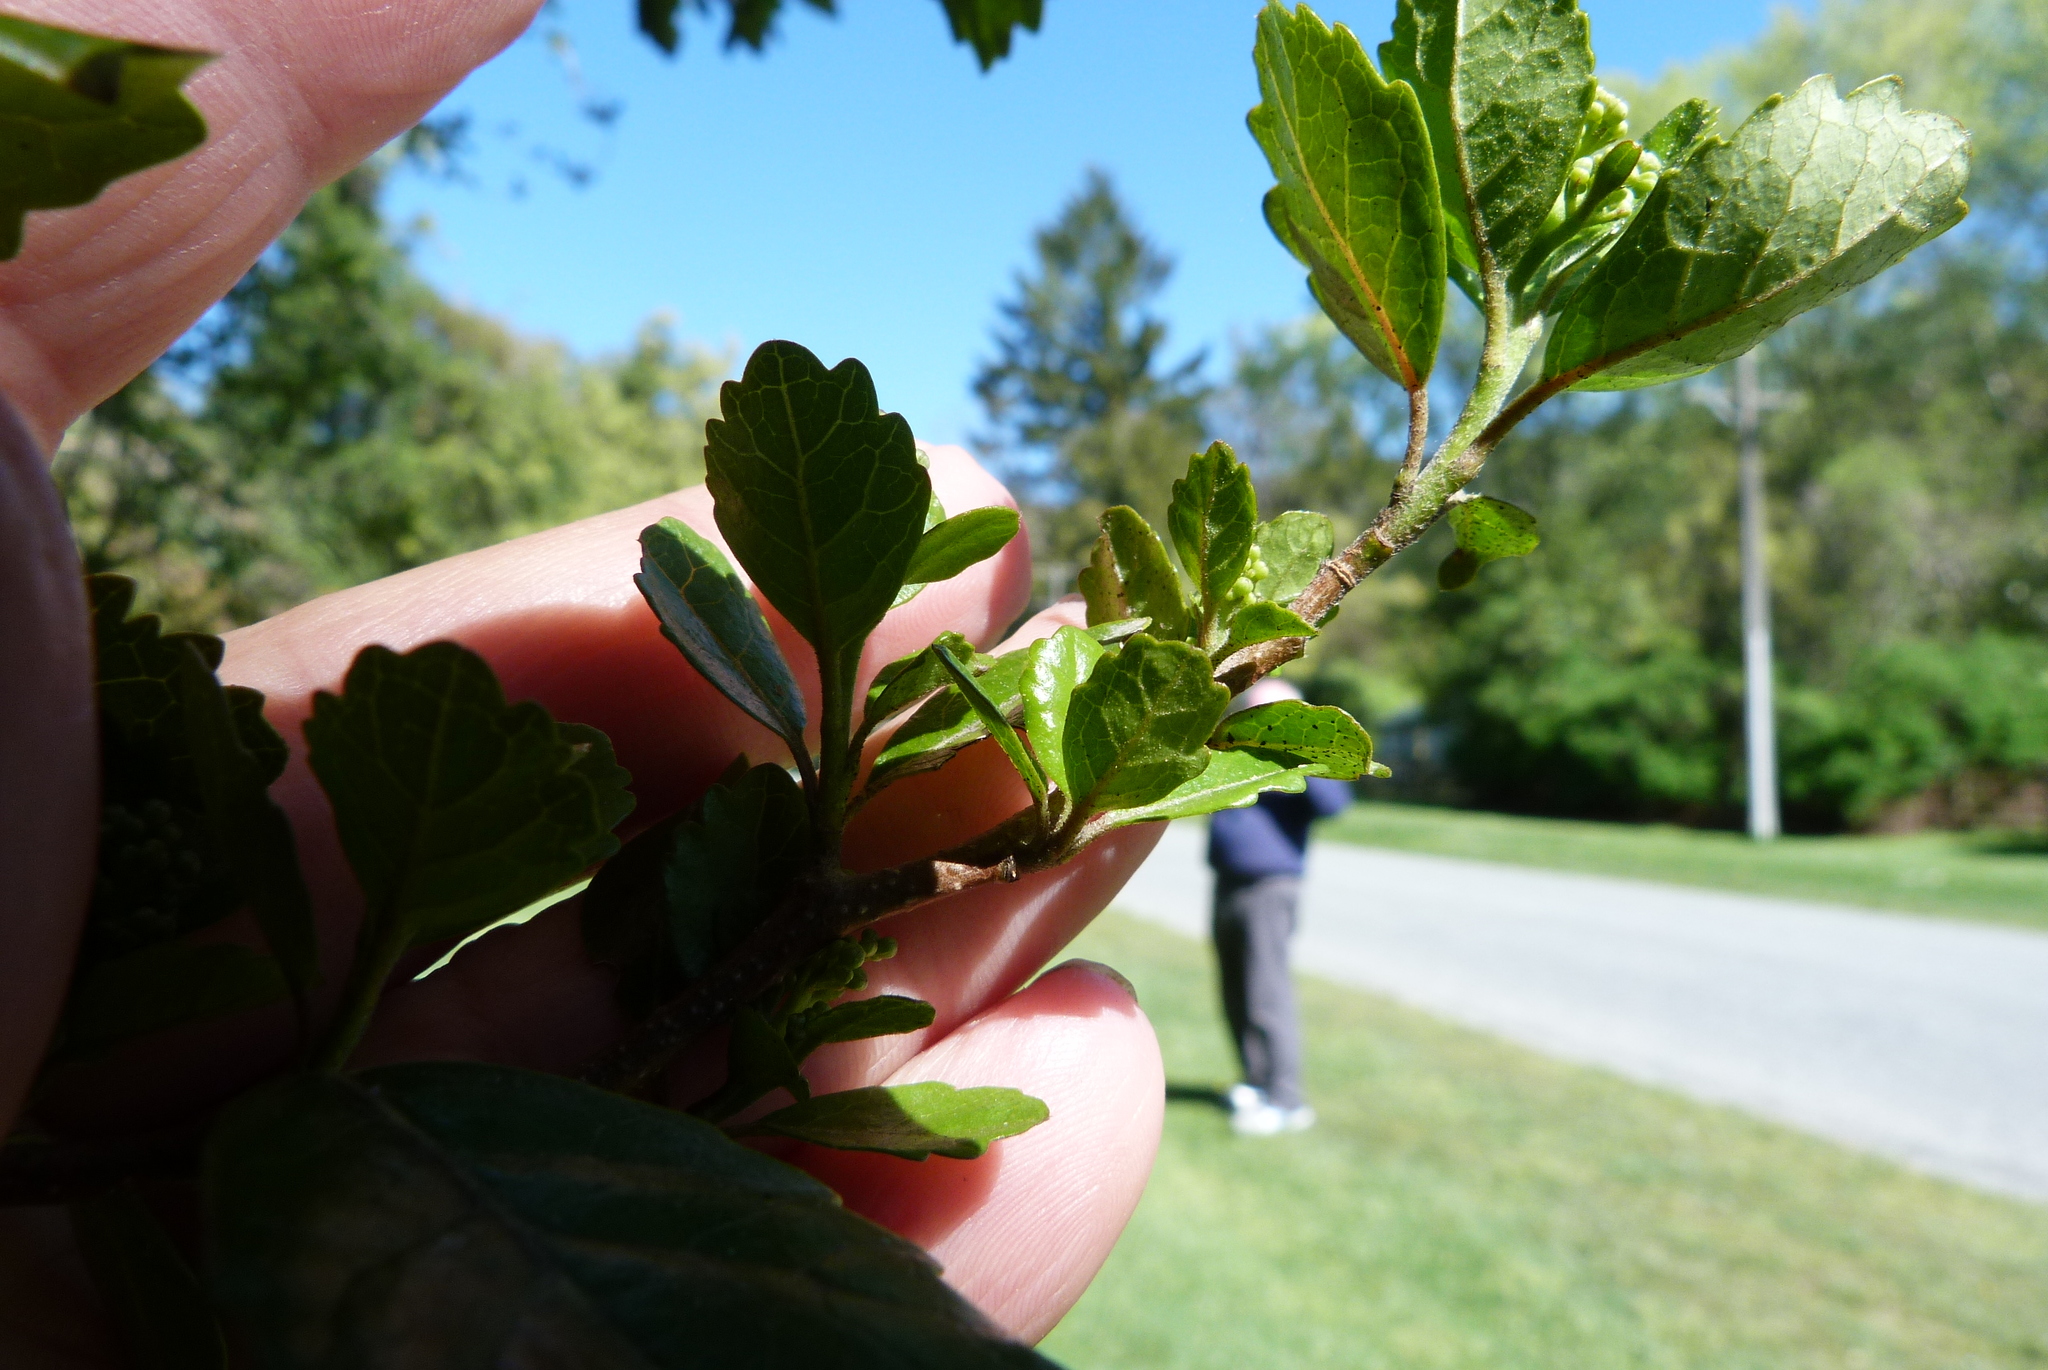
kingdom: Plantae
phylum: Tracheophyta
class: Magnoliopsida
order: Apiales
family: Pennantiaceae
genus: Pennantia
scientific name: Pennantia corymbosa
